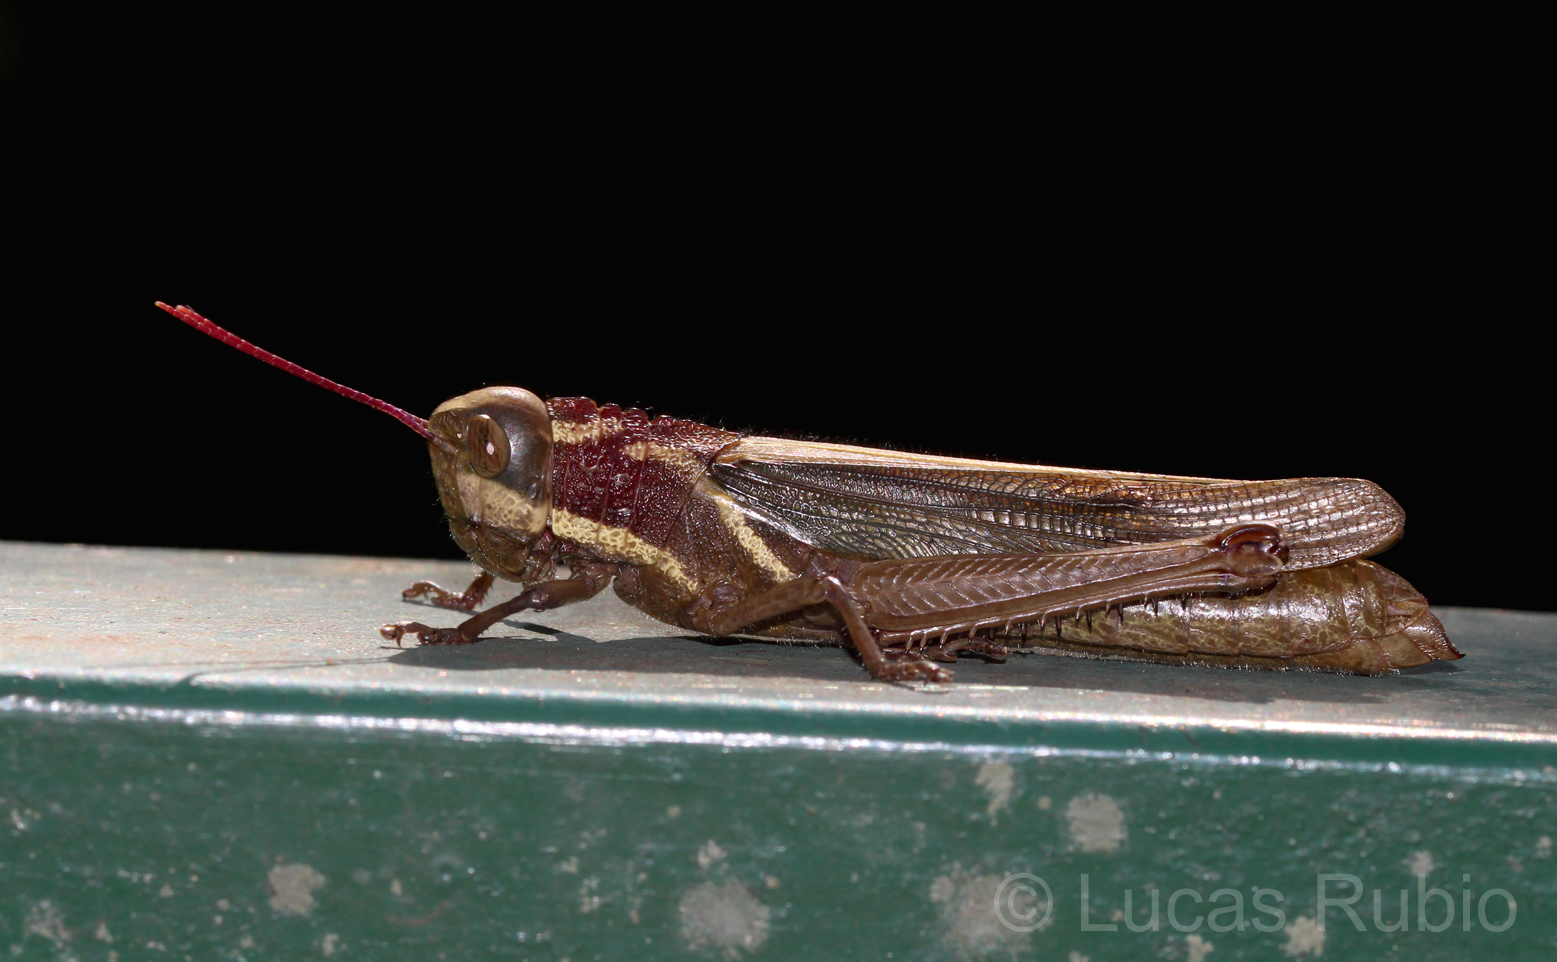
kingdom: Animalia
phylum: Arthropoda
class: Insecta
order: Orthoptera
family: Acrididae
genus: Zygoclistron
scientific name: Zygoclistron superbum
